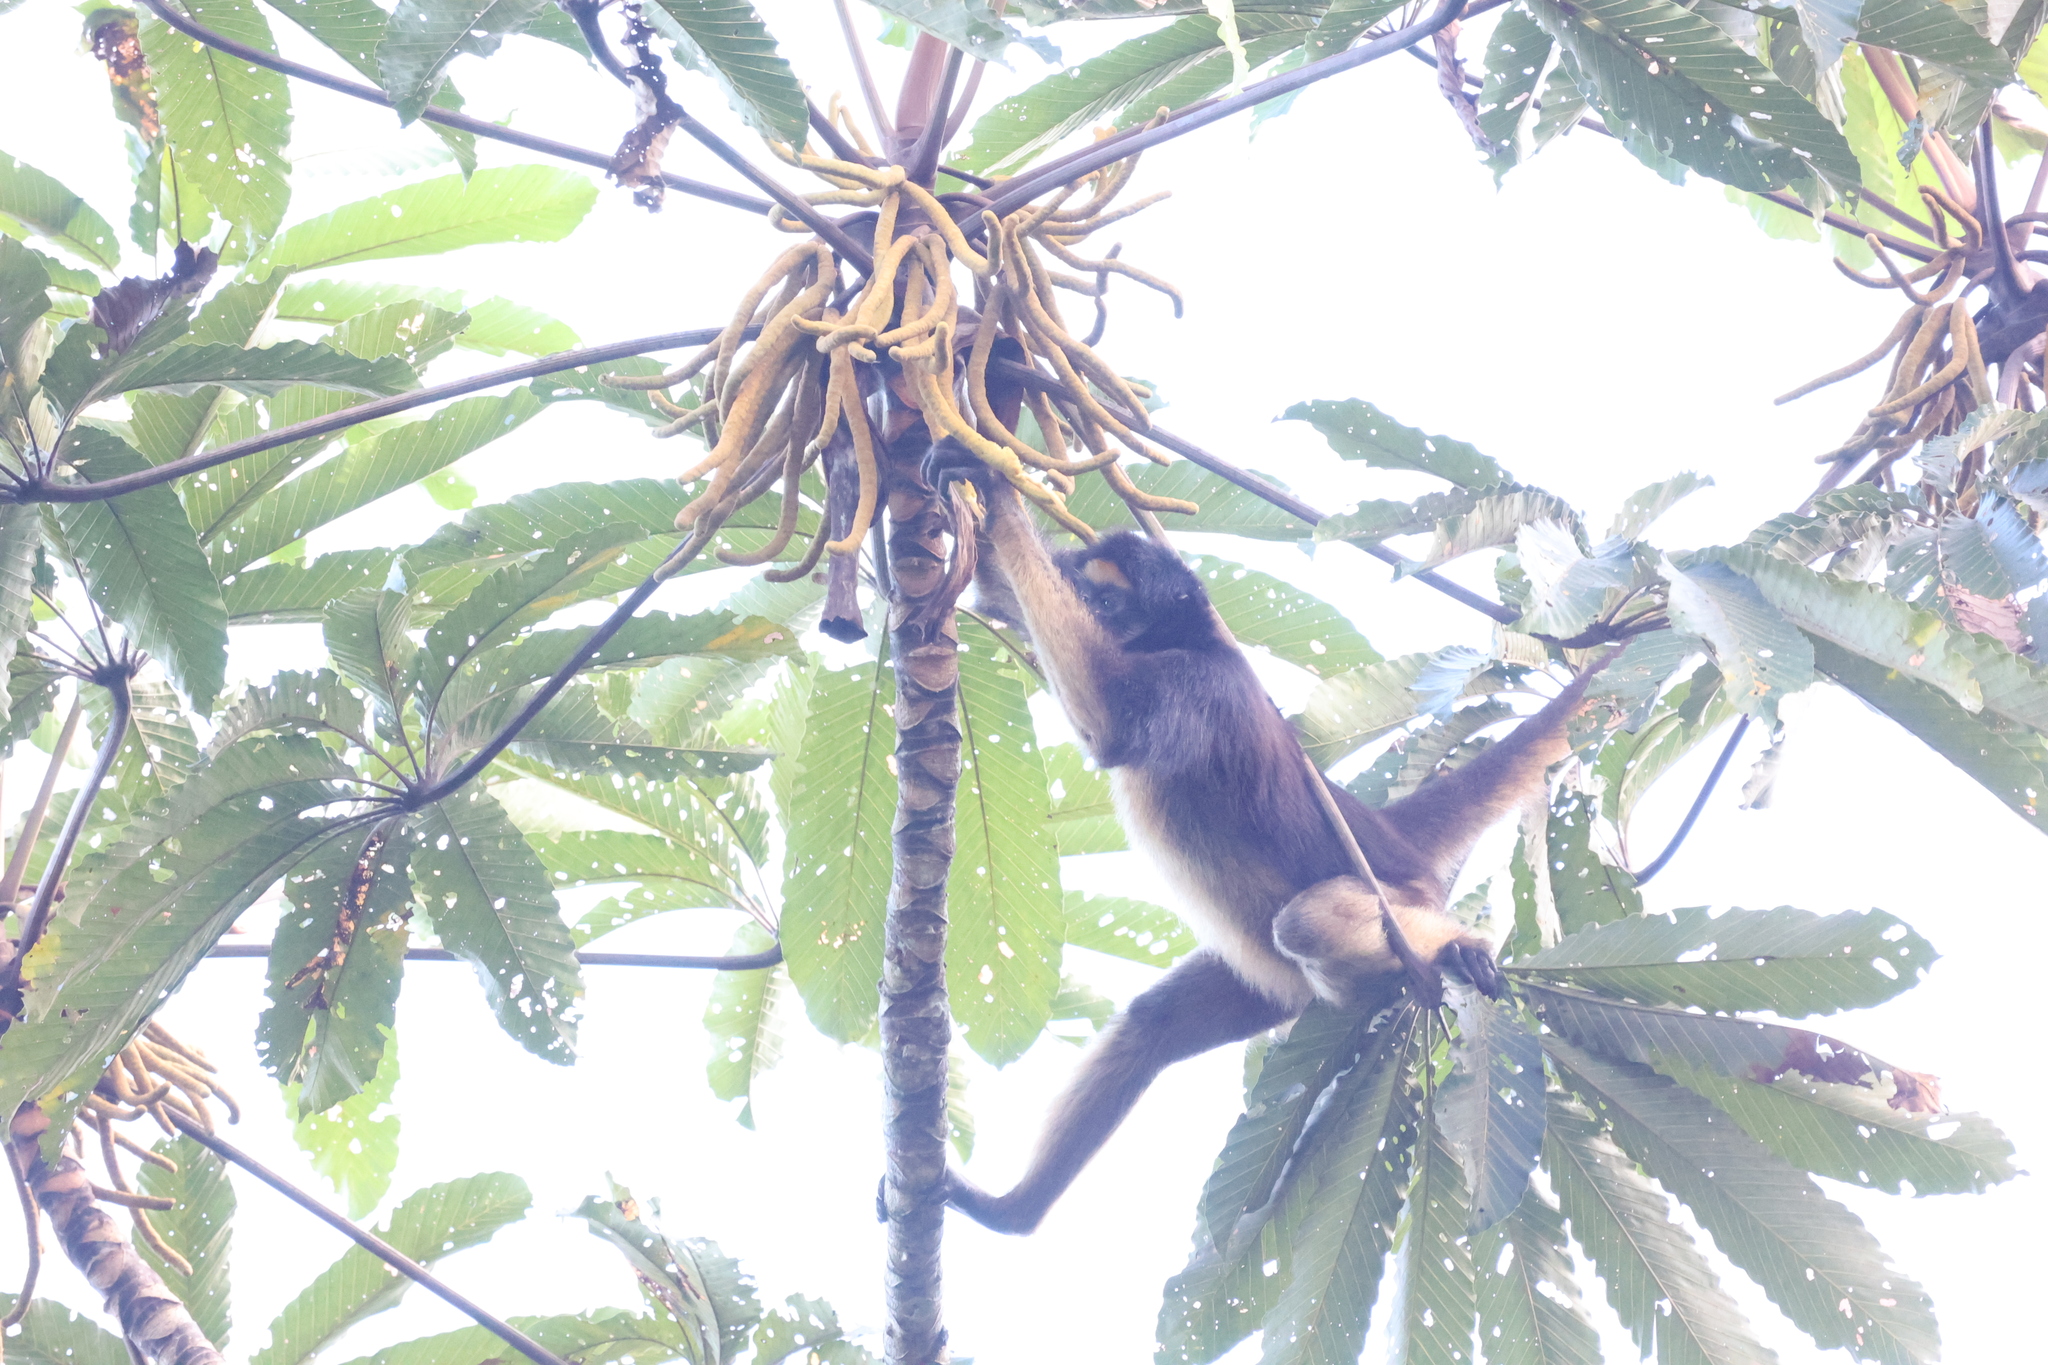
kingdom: Animalia
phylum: Chordata
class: Mammalia
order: Primates
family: Atelidae
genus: Ateles
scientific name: Ateles belzebuth
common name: White-fronted spider monkey
